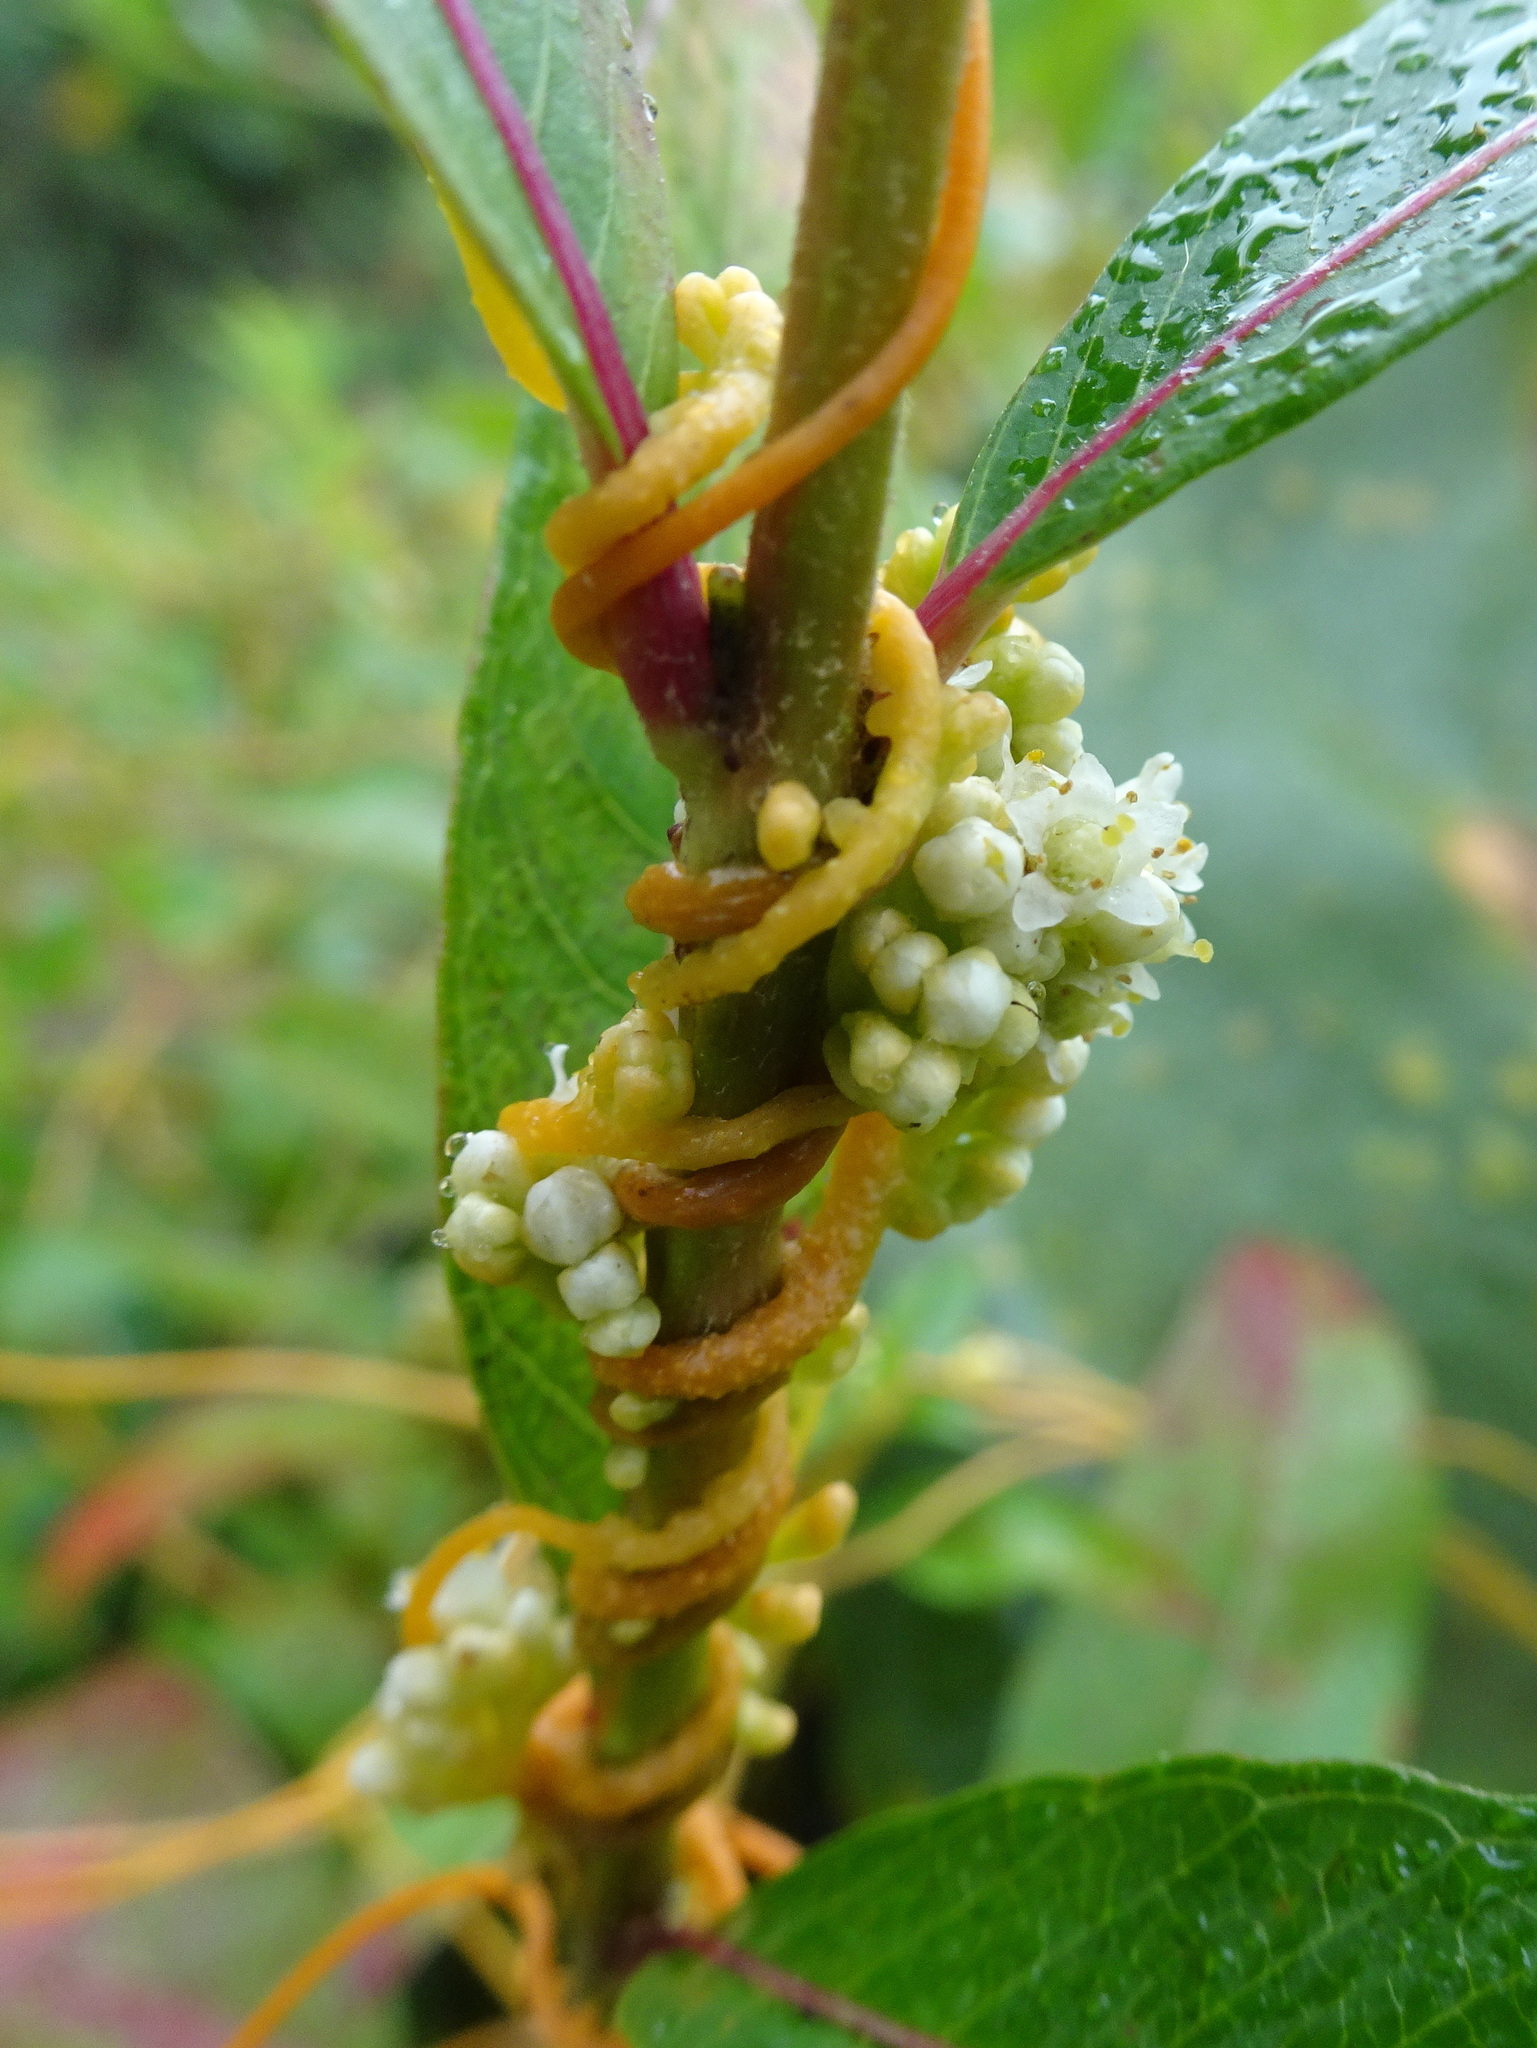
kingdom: Plantae
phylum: Tracheophyta
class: Magnoliopsida
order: Solanales
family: Convolvulaceae
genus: Cuscuta
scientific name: Cuscuta gronovii
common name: Common dodder
